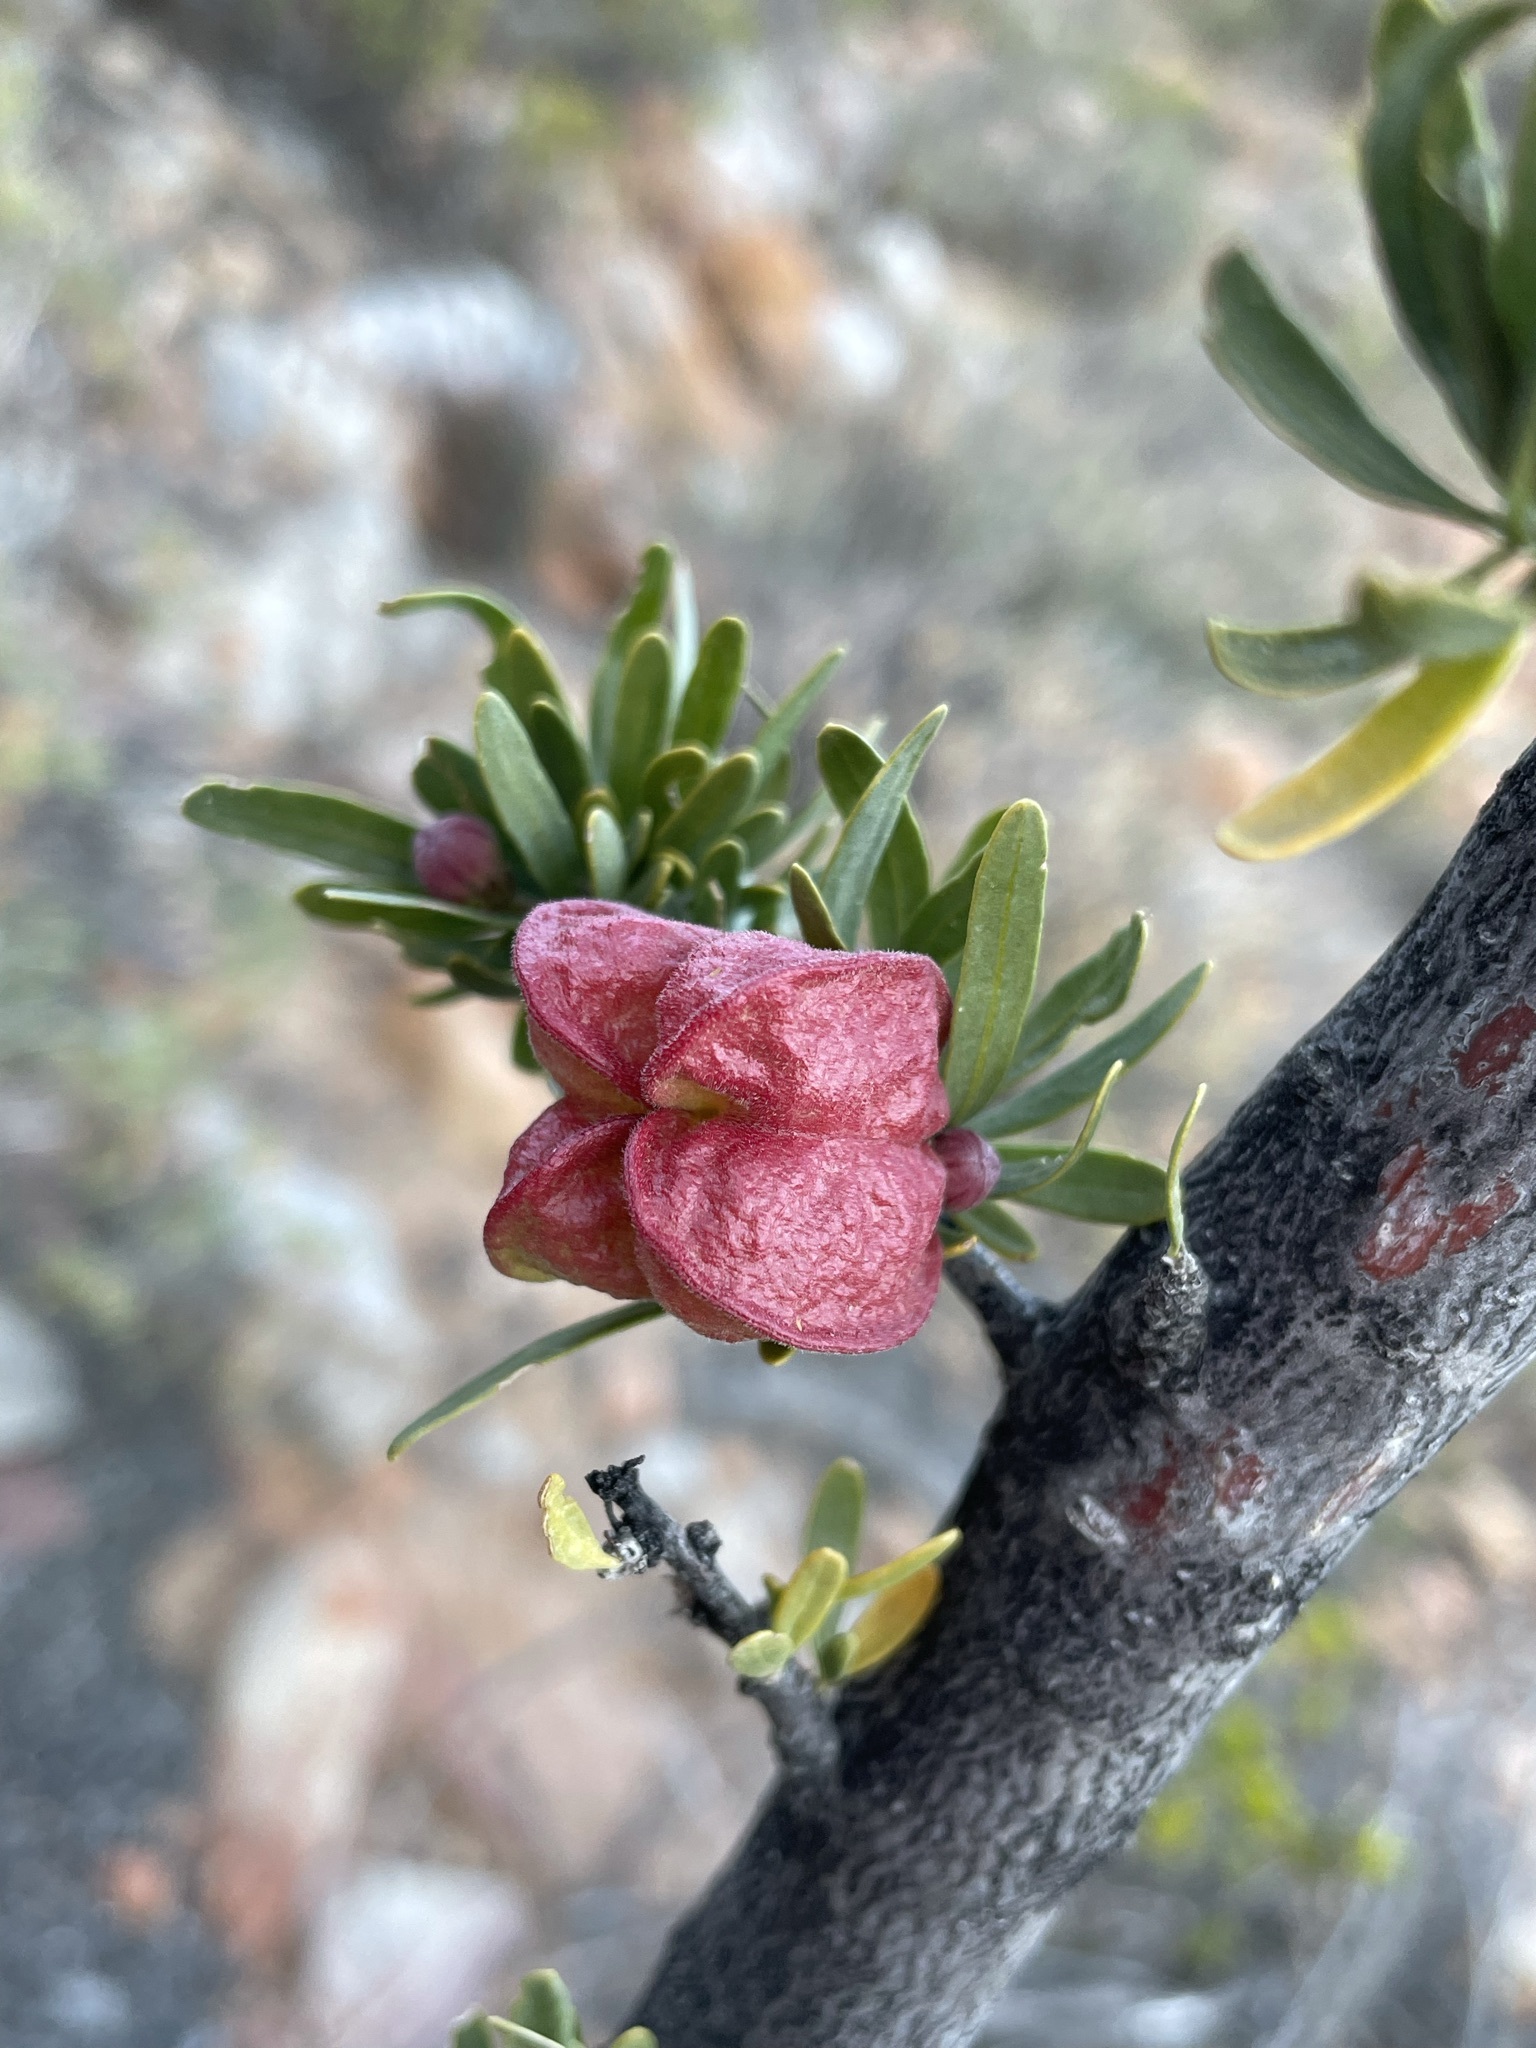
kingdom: Plantae
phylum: Tracheophyta
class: Magnoliopsida
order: Sapindales
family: Meliaceae
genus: Nymania
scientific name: Nymania capensis
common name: Chinese lantern tree
